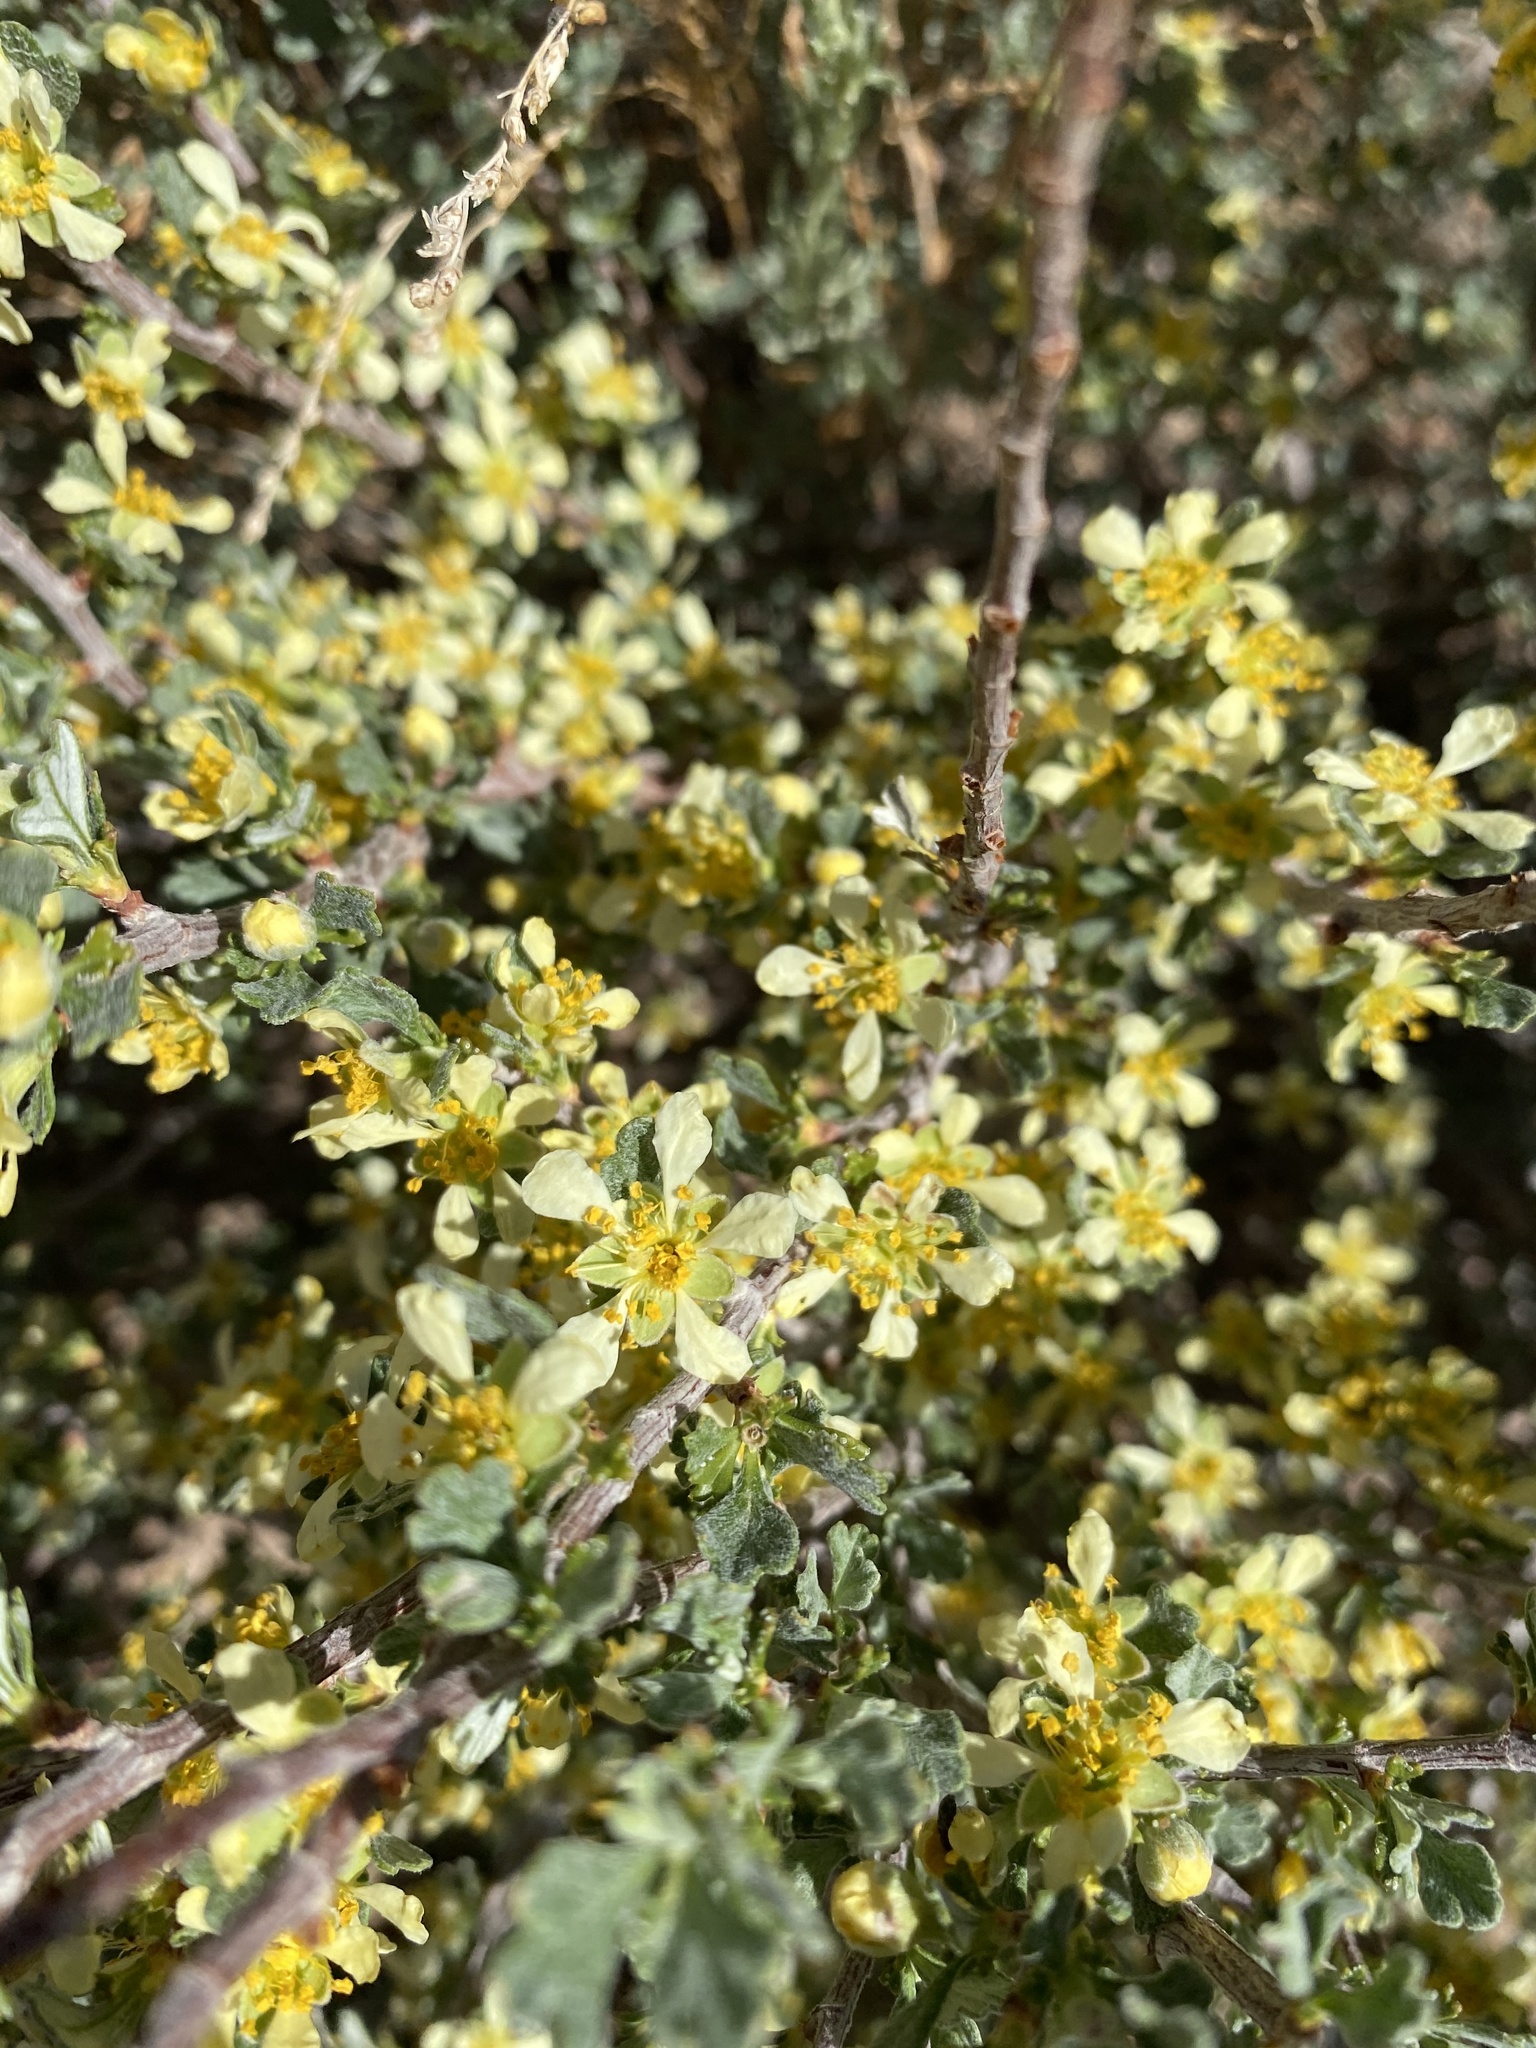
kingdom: Plantae
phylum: Tracheophyta
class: Magnoliopsida
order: Rosales
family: Rosaceae
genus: Purshia
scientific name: Purshia tridentata
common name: Antelope bitterbrush
